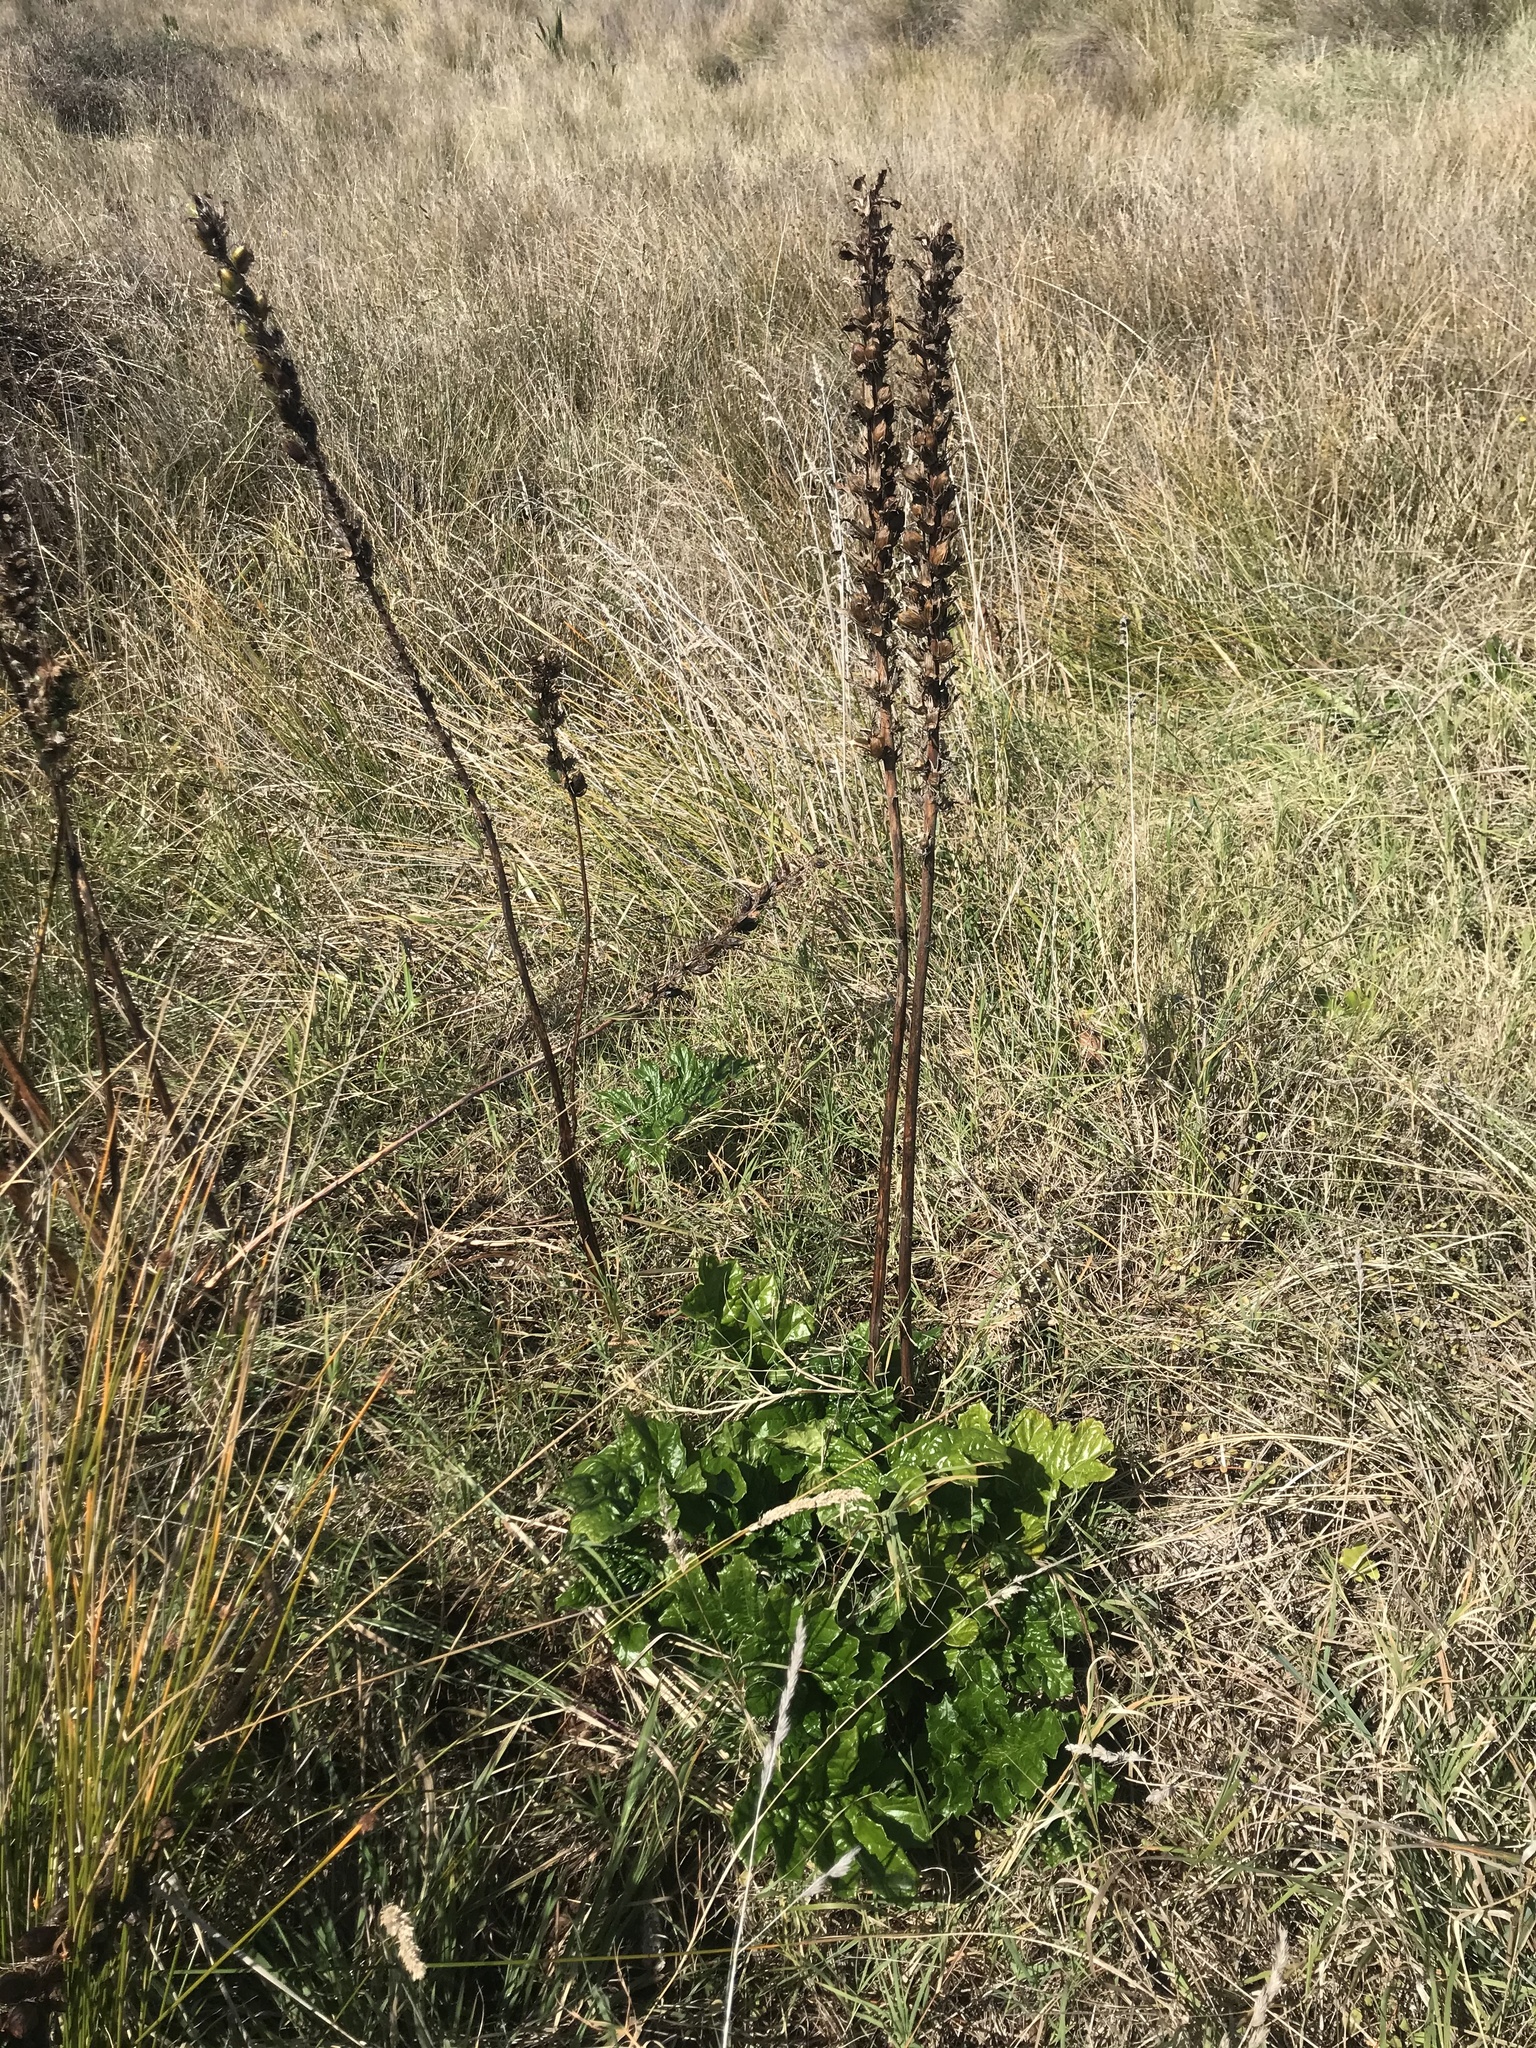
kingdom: Plantae
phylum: Tracheophyta
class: Magnoliopsida
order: Lamiales
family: Acanthaceae
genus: Acanthus
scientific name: Acanthus mollis
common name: Bear's-breech
